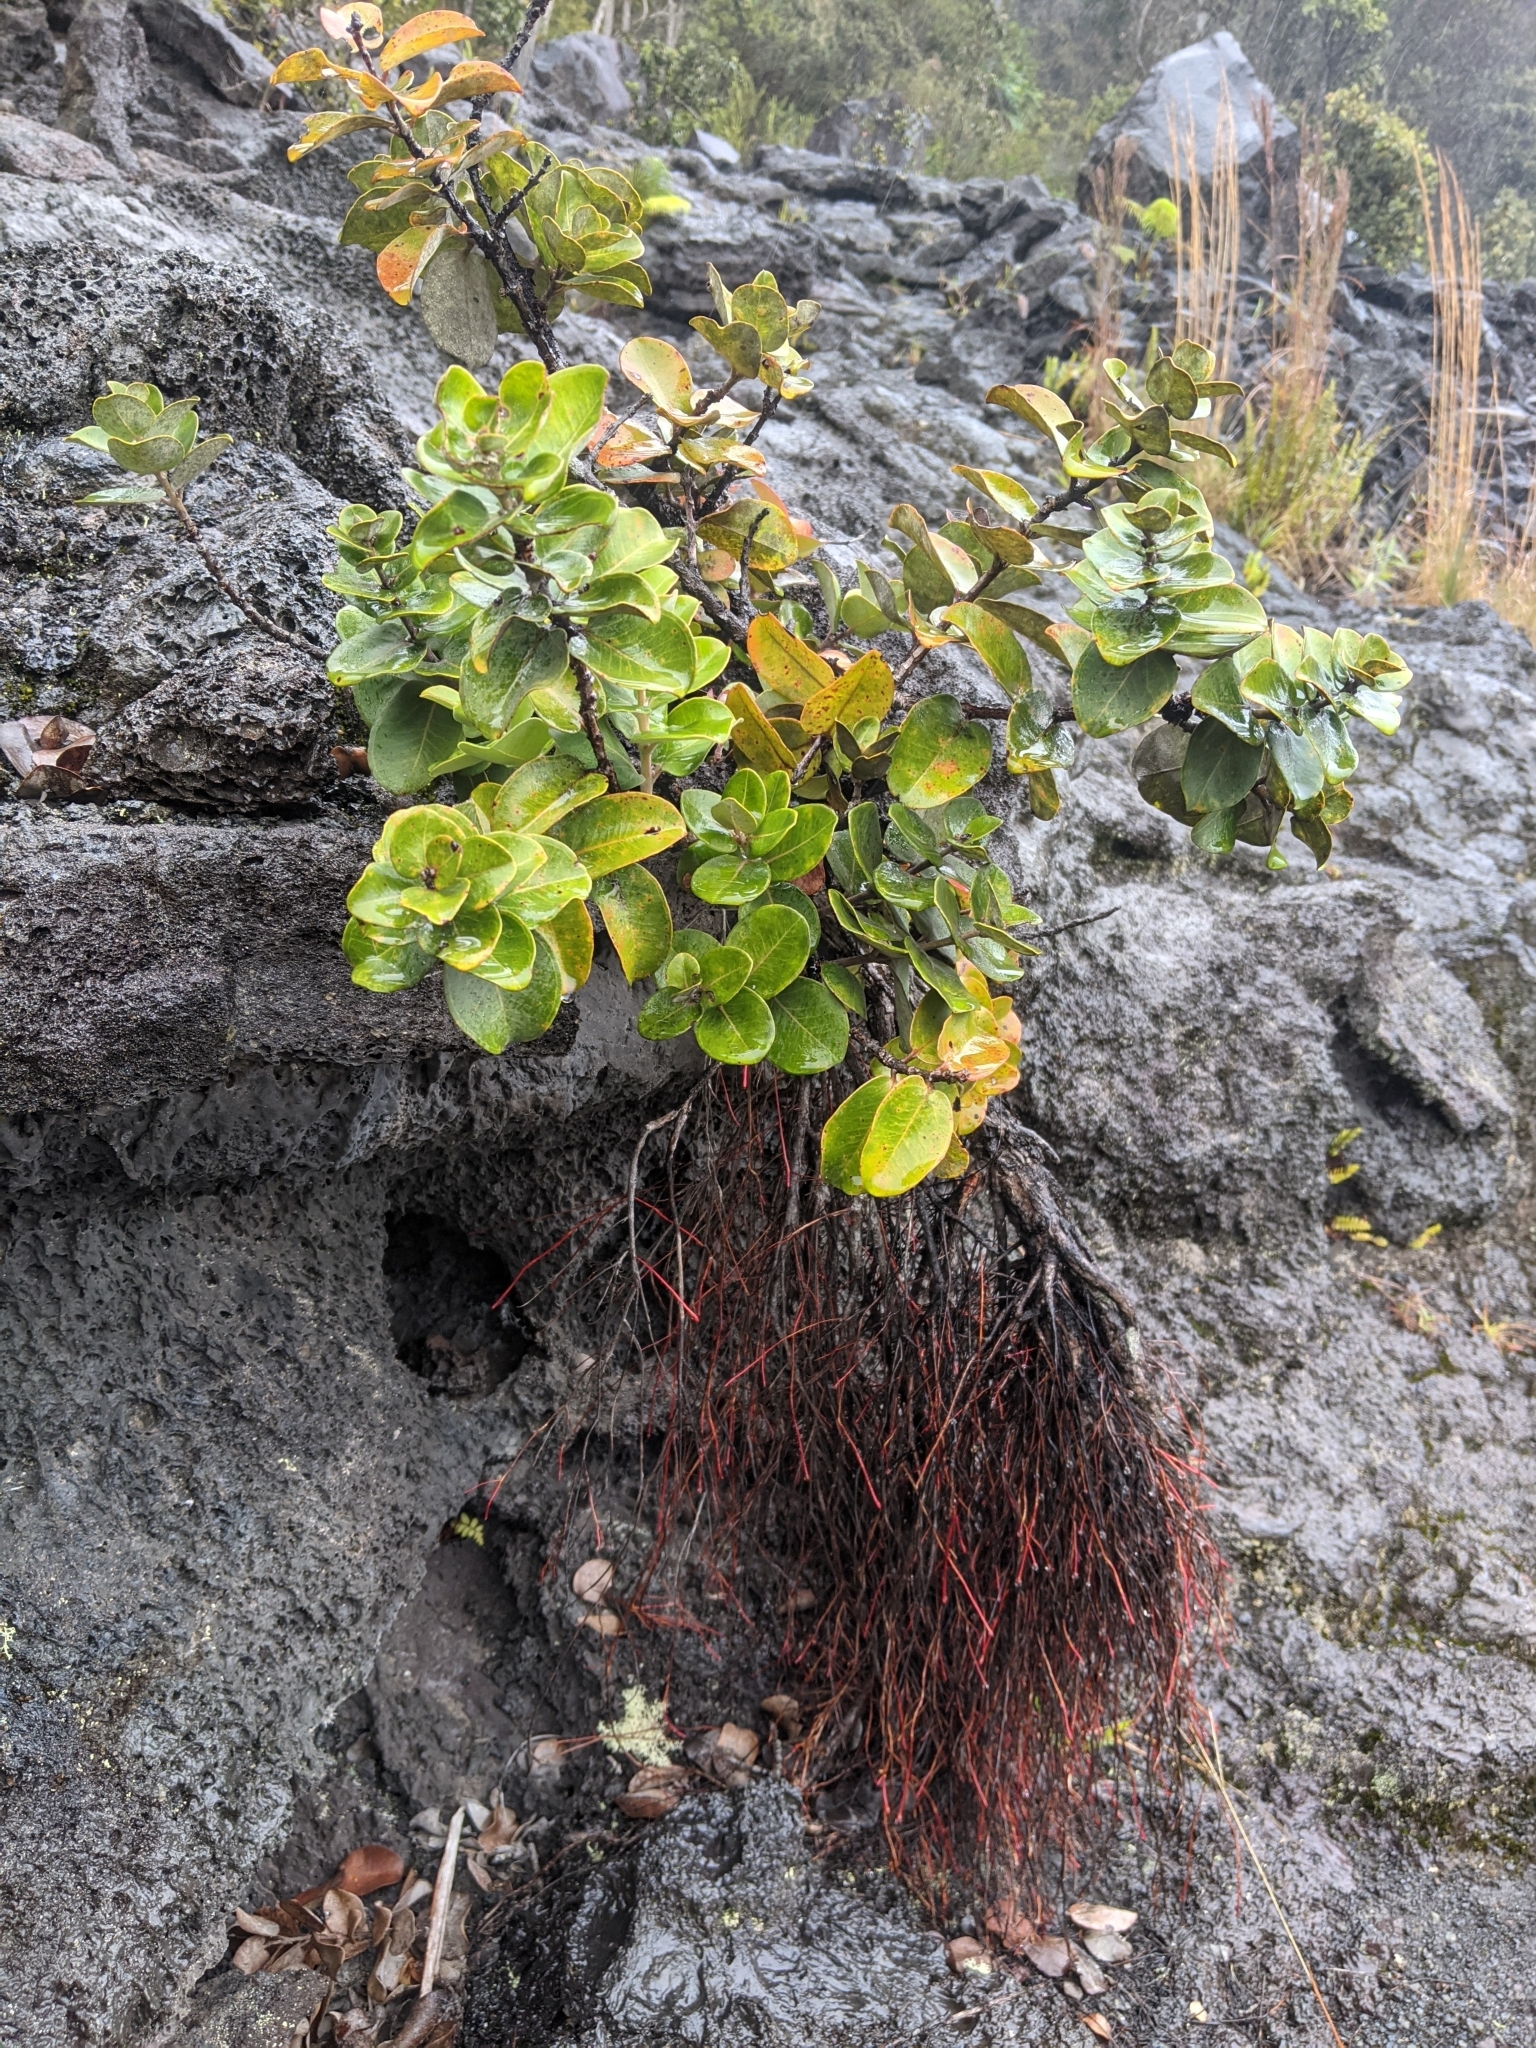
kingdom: Plantae
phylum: Tracheophyta
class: Magnoliopsida
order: Myrtales
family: Myrtaceae
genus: Metrosideros
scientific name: Metrosideros polymorpha
